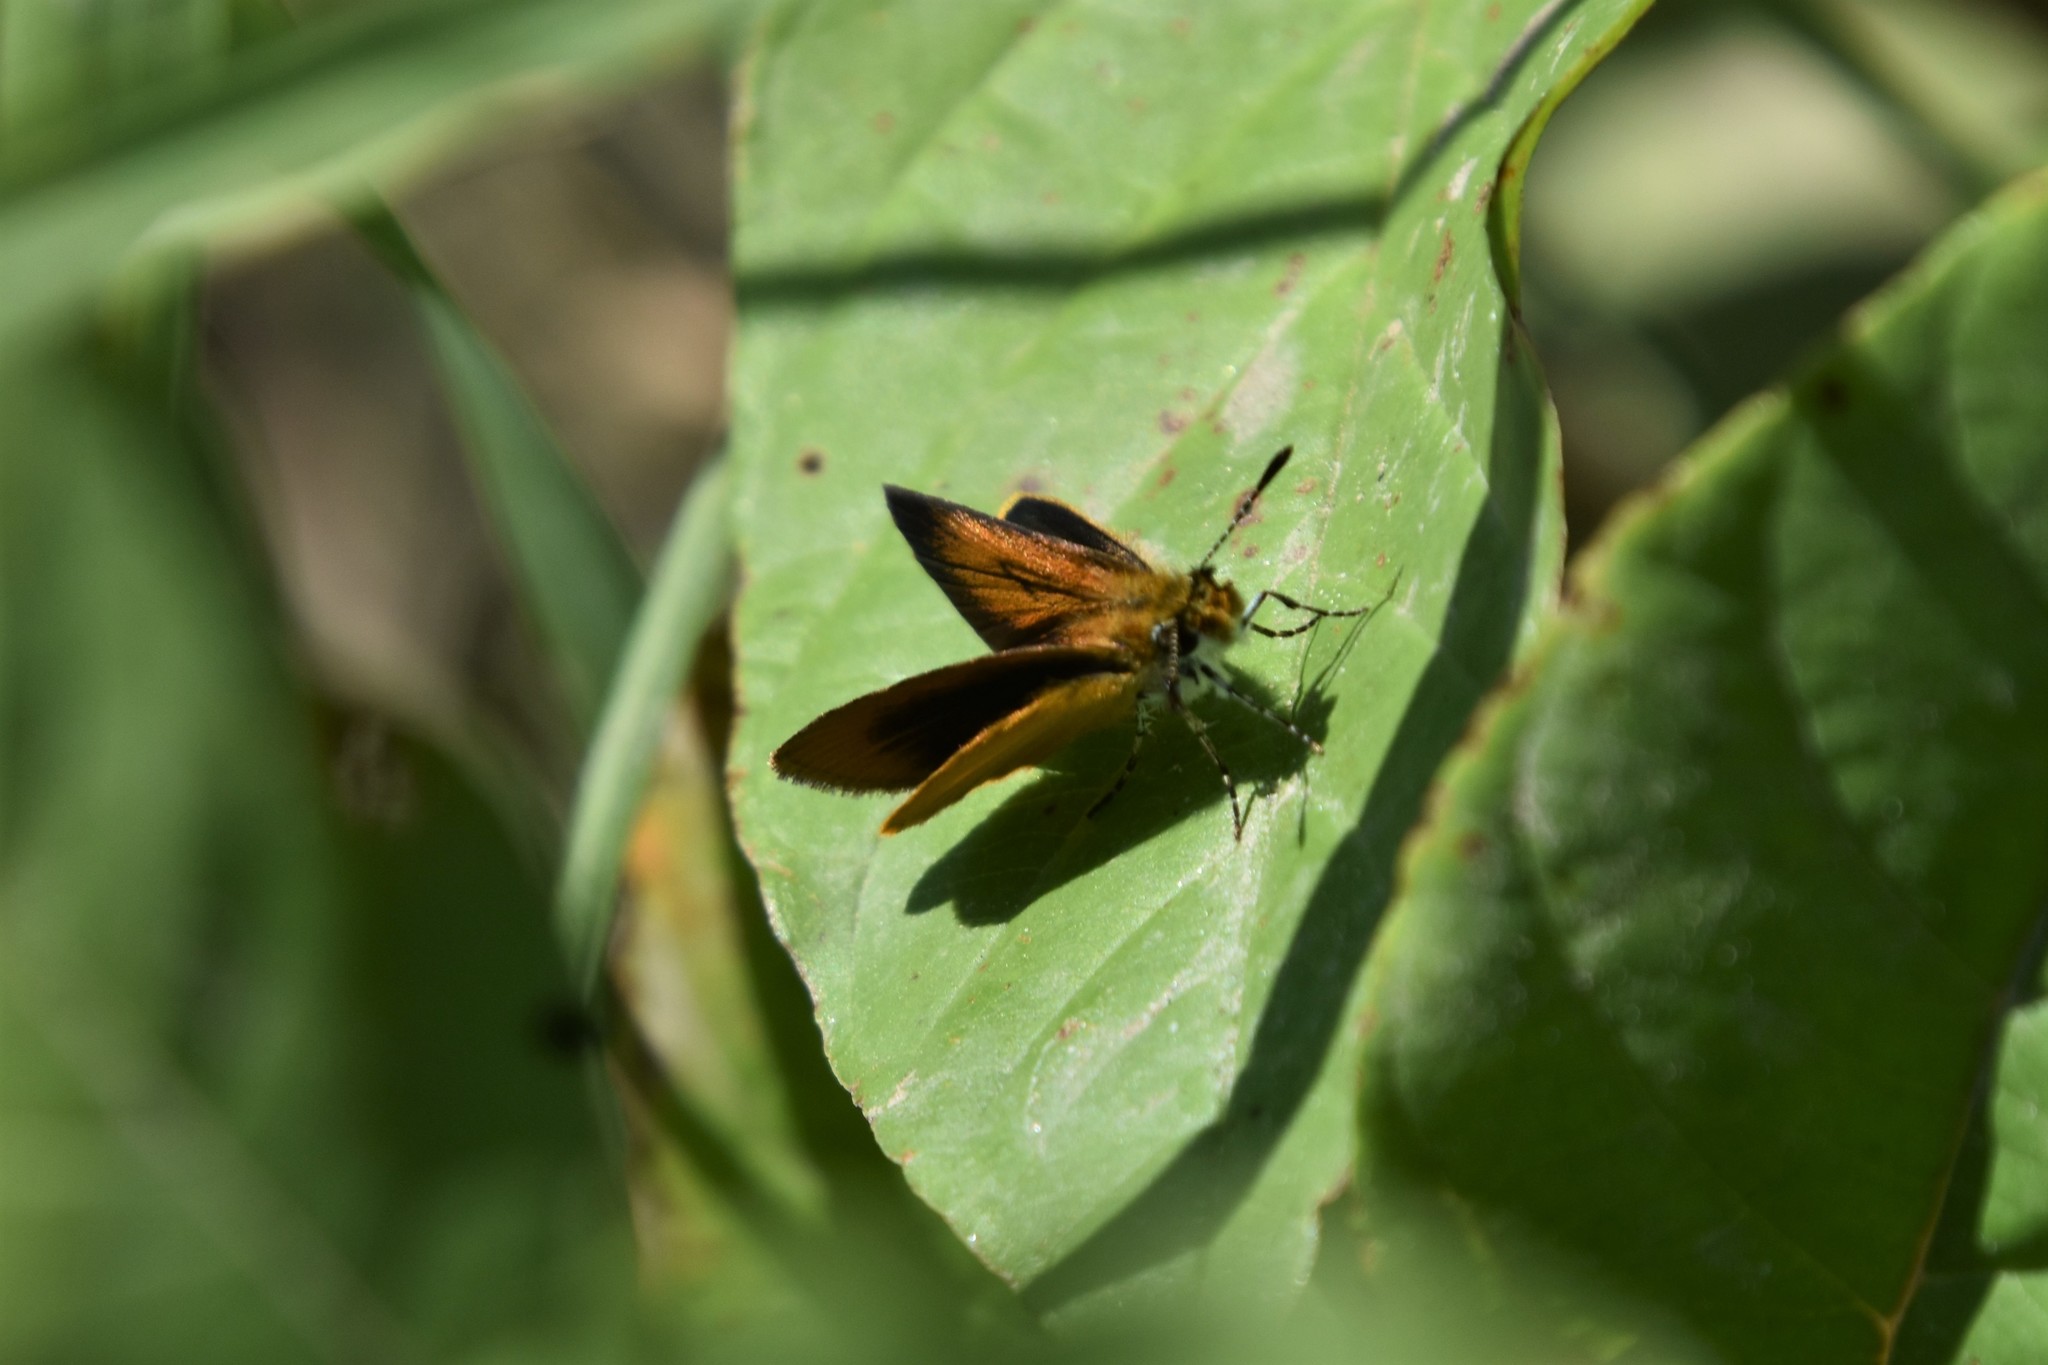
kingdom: Animalia
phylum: Arthropoda
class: Insecta
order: Lepidoptera
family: Hesperiidae
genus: Ancyloxypha
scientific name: Ancyloxypha numitor
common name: Least skipper
